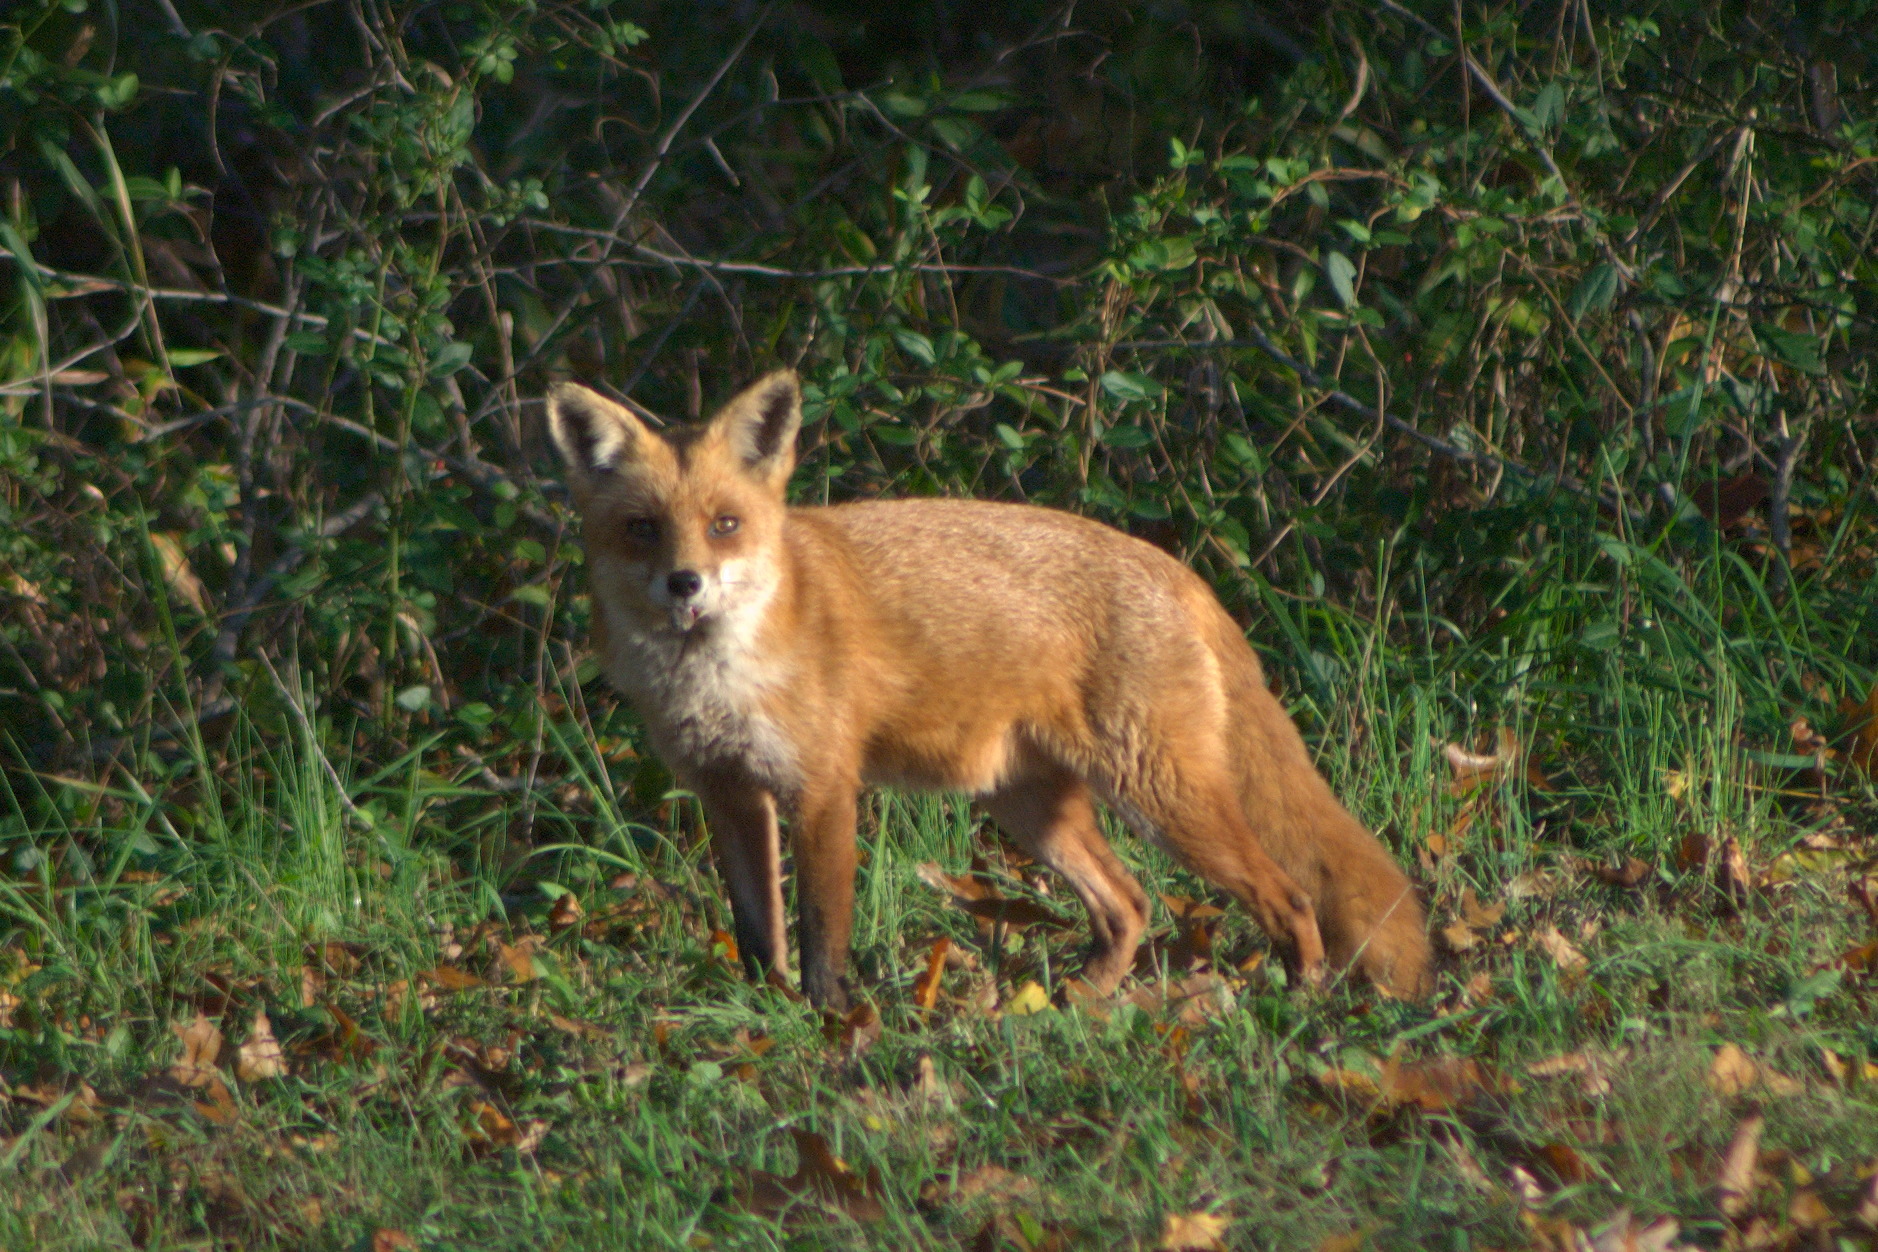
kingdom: Animalia
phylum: Chordata
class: Mammalia
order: Carnivora
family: Canidae
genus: Vulpes
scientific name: Vulpes vulpes
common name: Red fox
